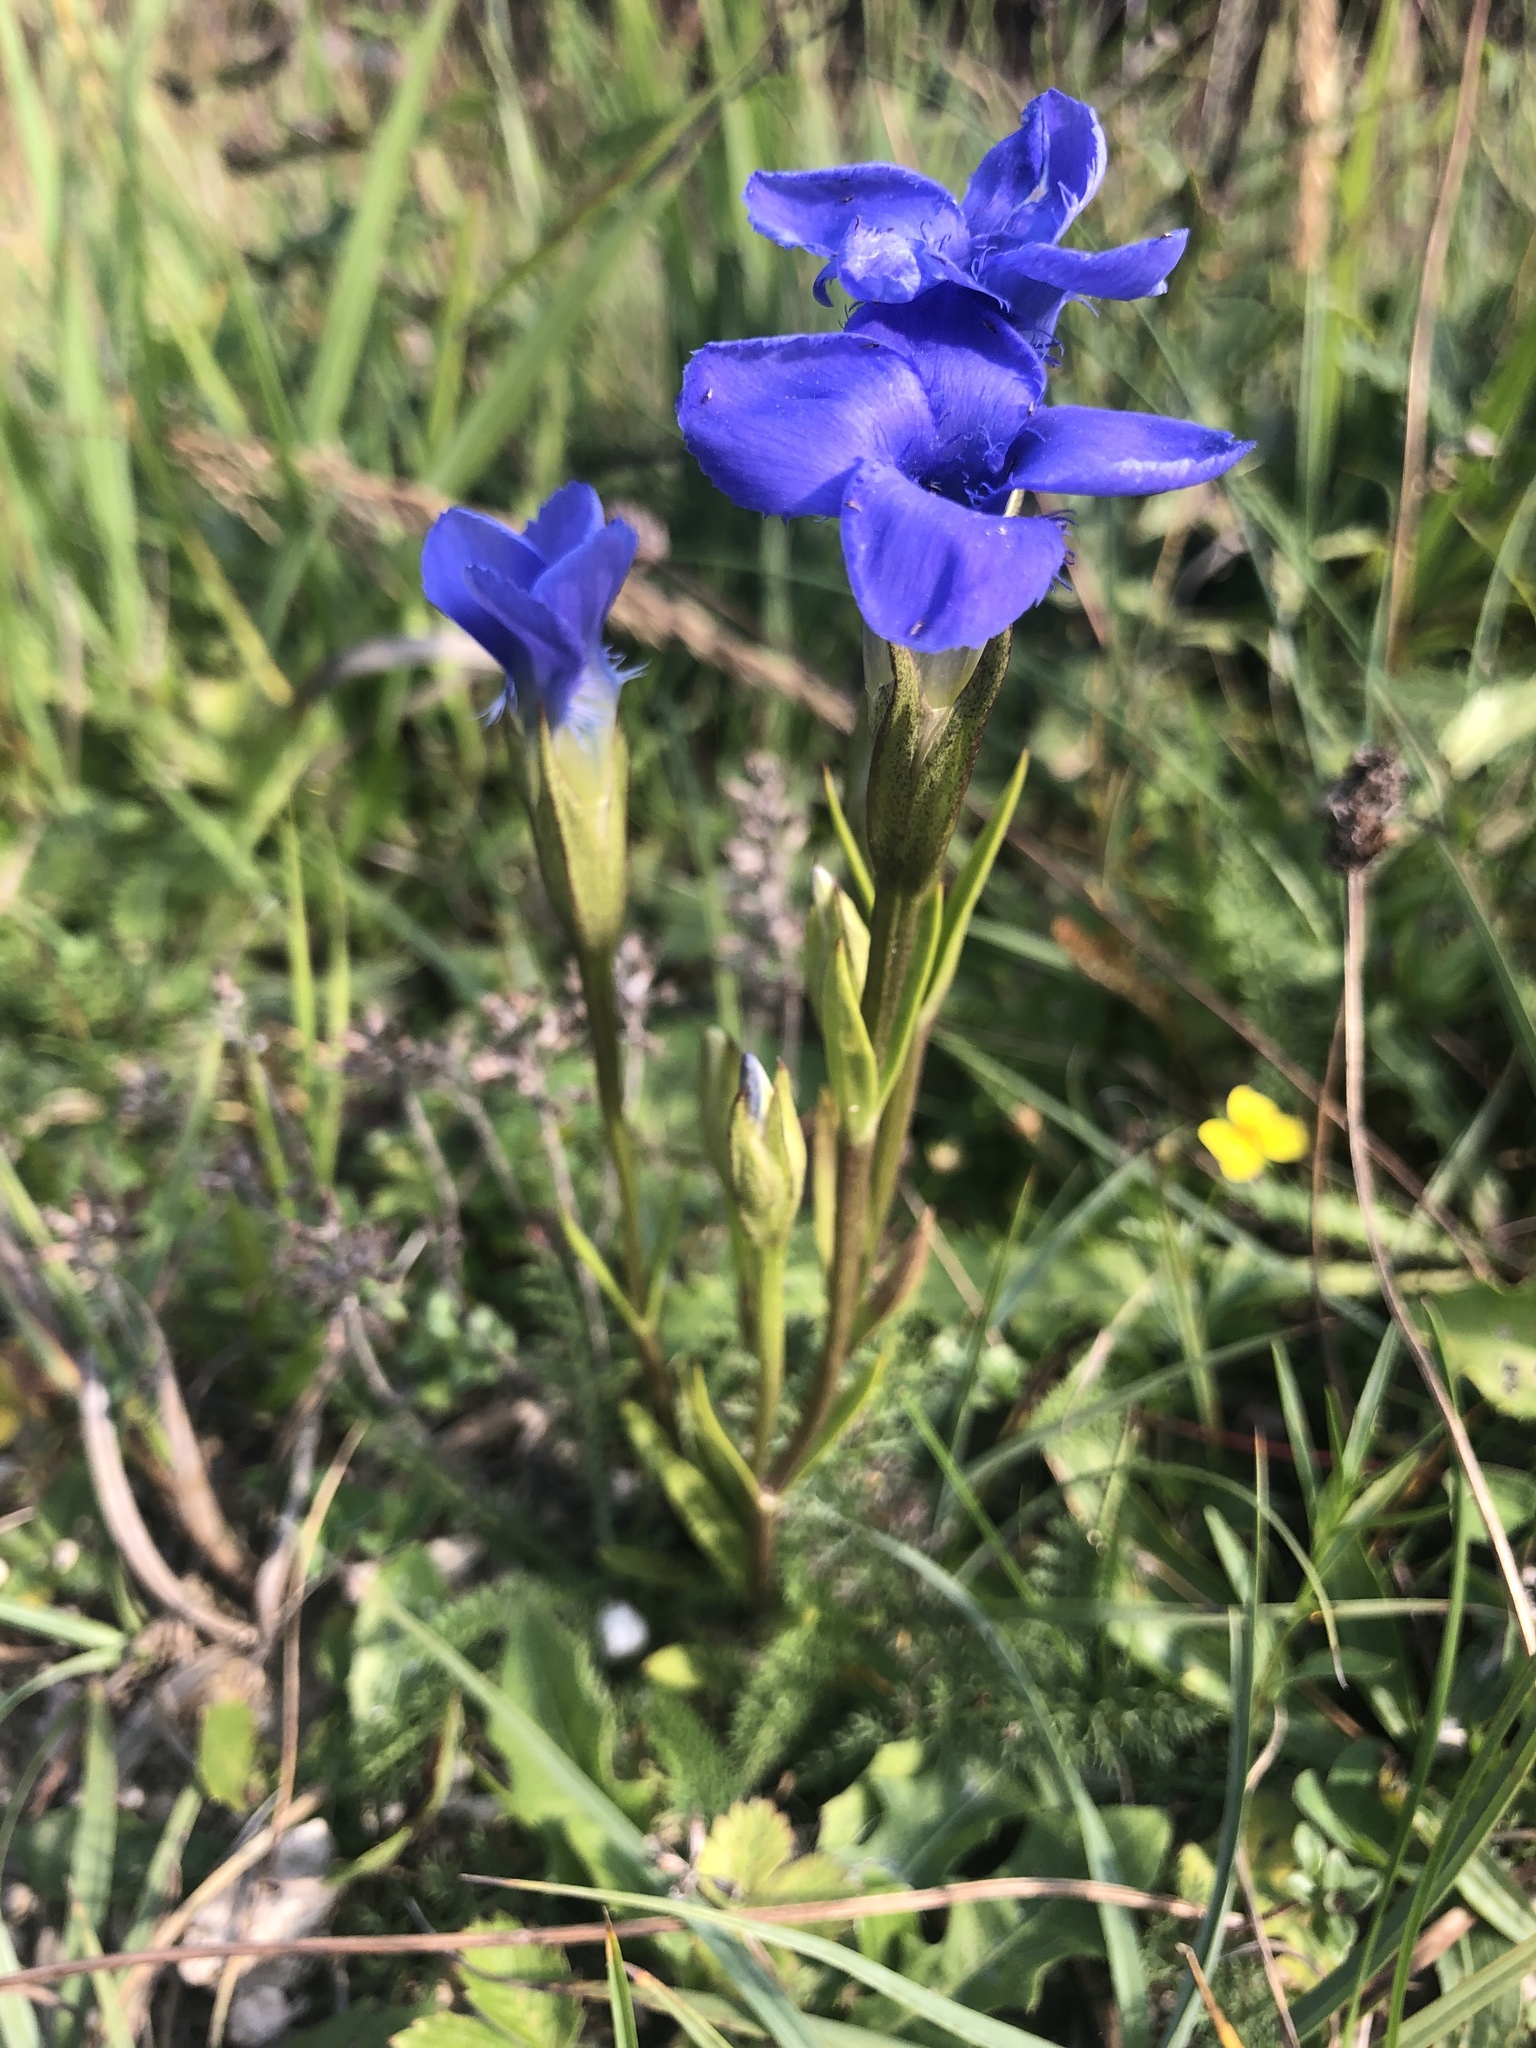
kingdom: Plantae
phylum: Tracheophyta
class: Magnoliopsida
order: Gentianales
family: Gentianaceae
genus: Gentianopsis
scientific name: Gentianopsis ciliata
